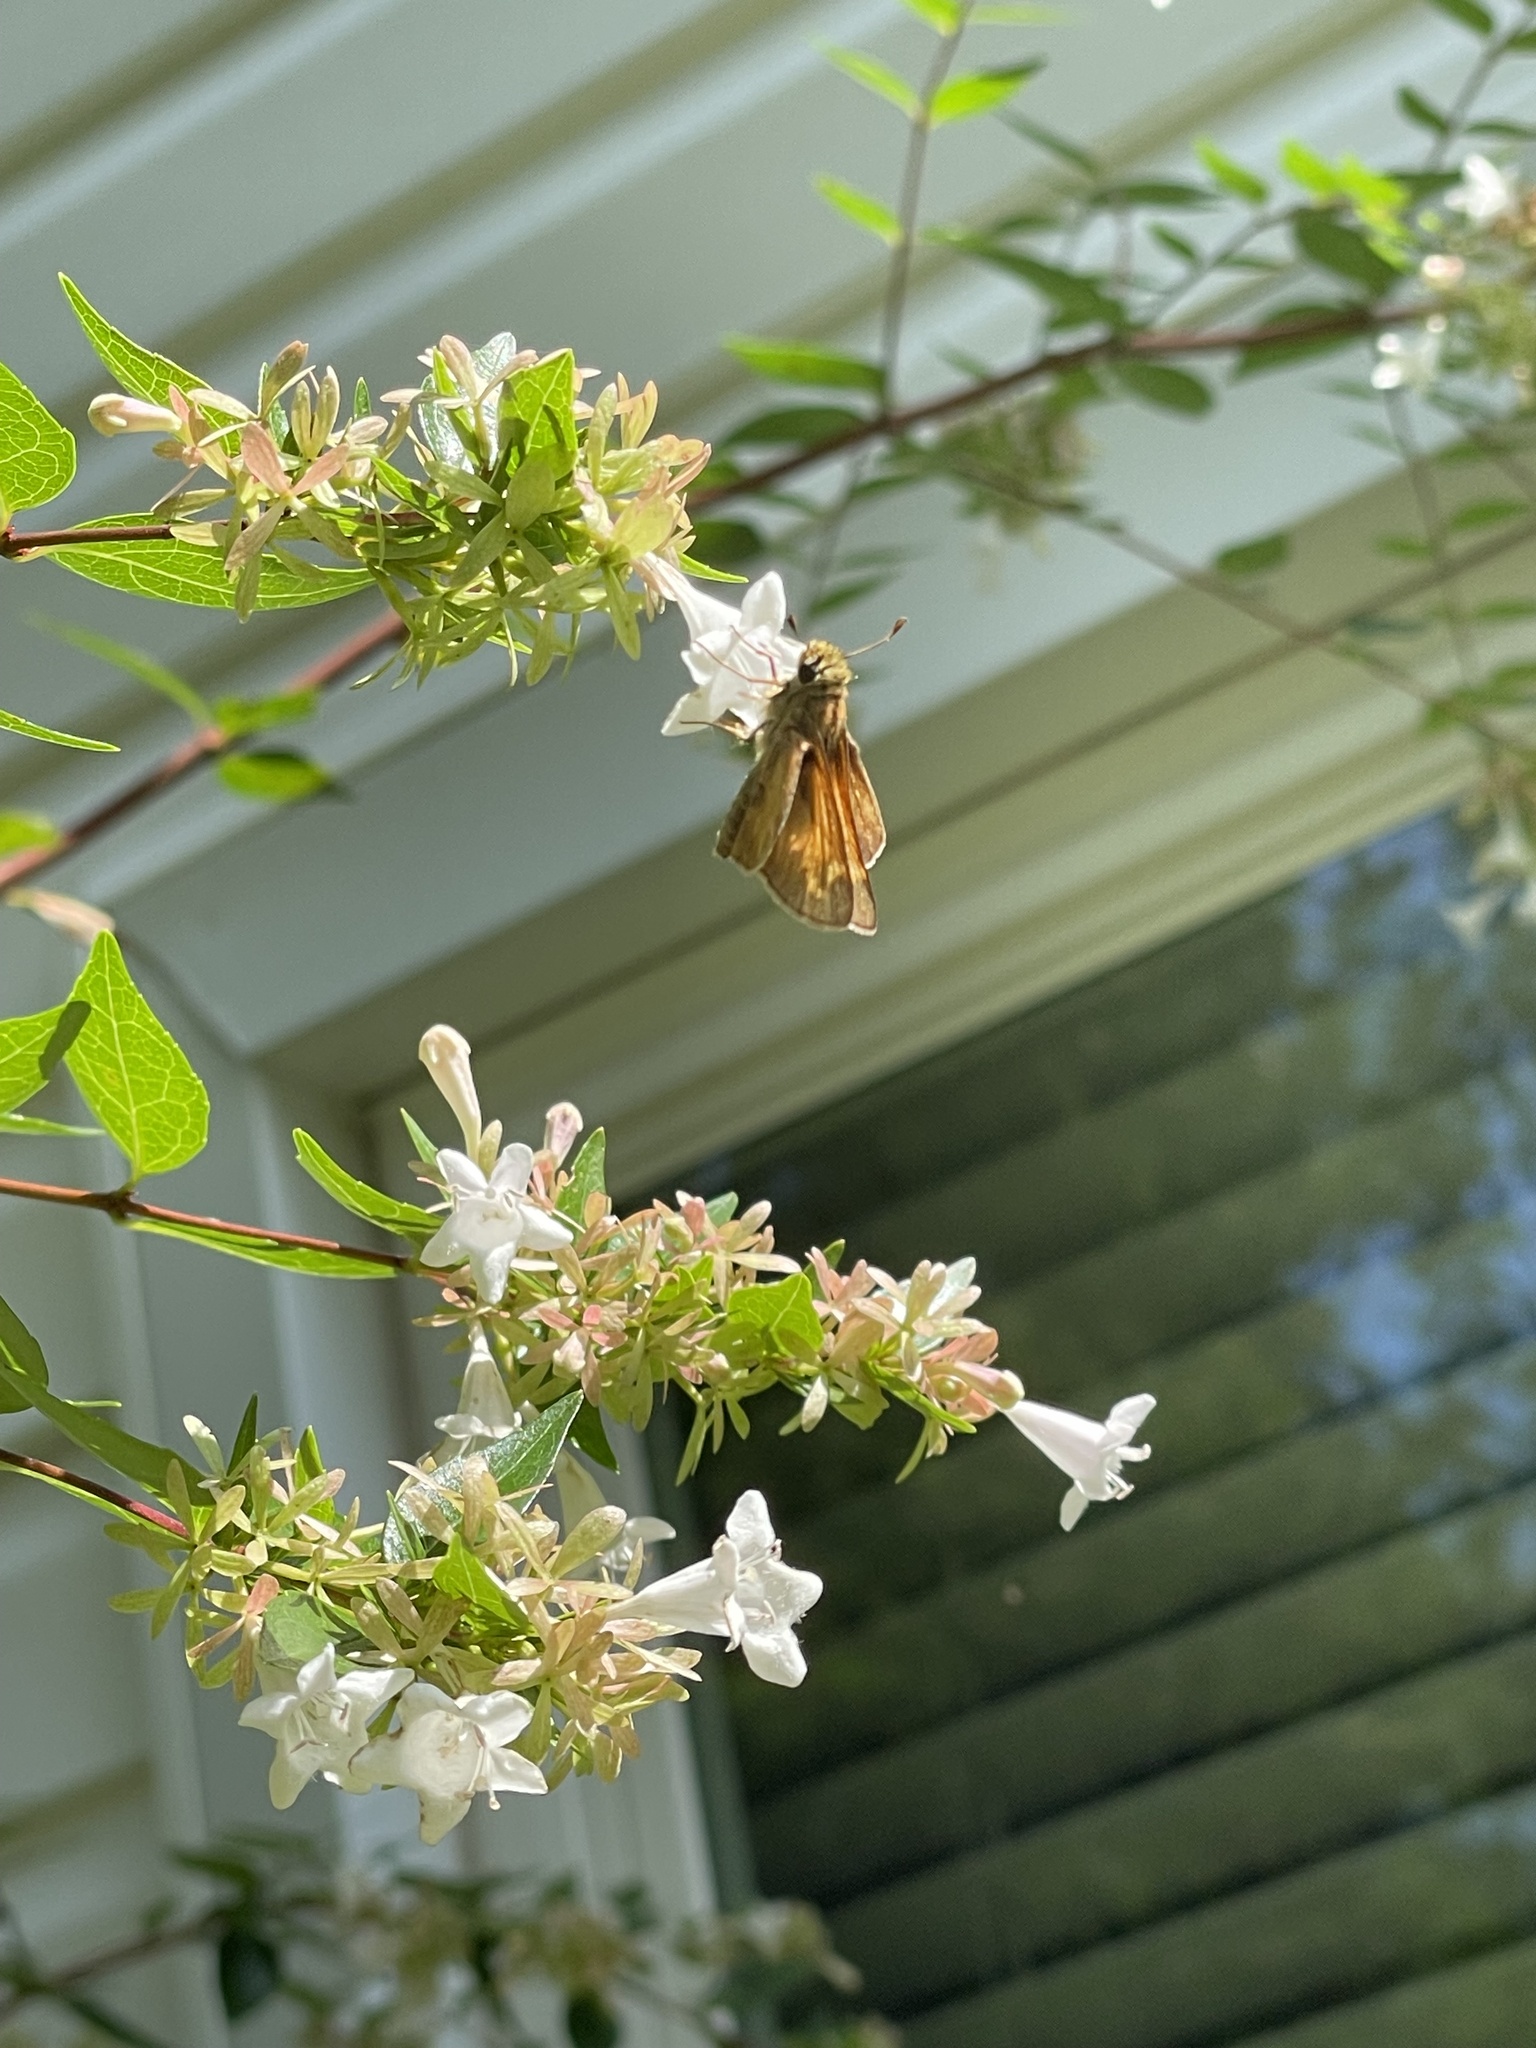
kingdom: Animalia
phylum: Arthropoda
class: Insecta
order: Lepidoptera
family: Hesperiidae
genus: Atalopedes
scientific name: Atalopedes
